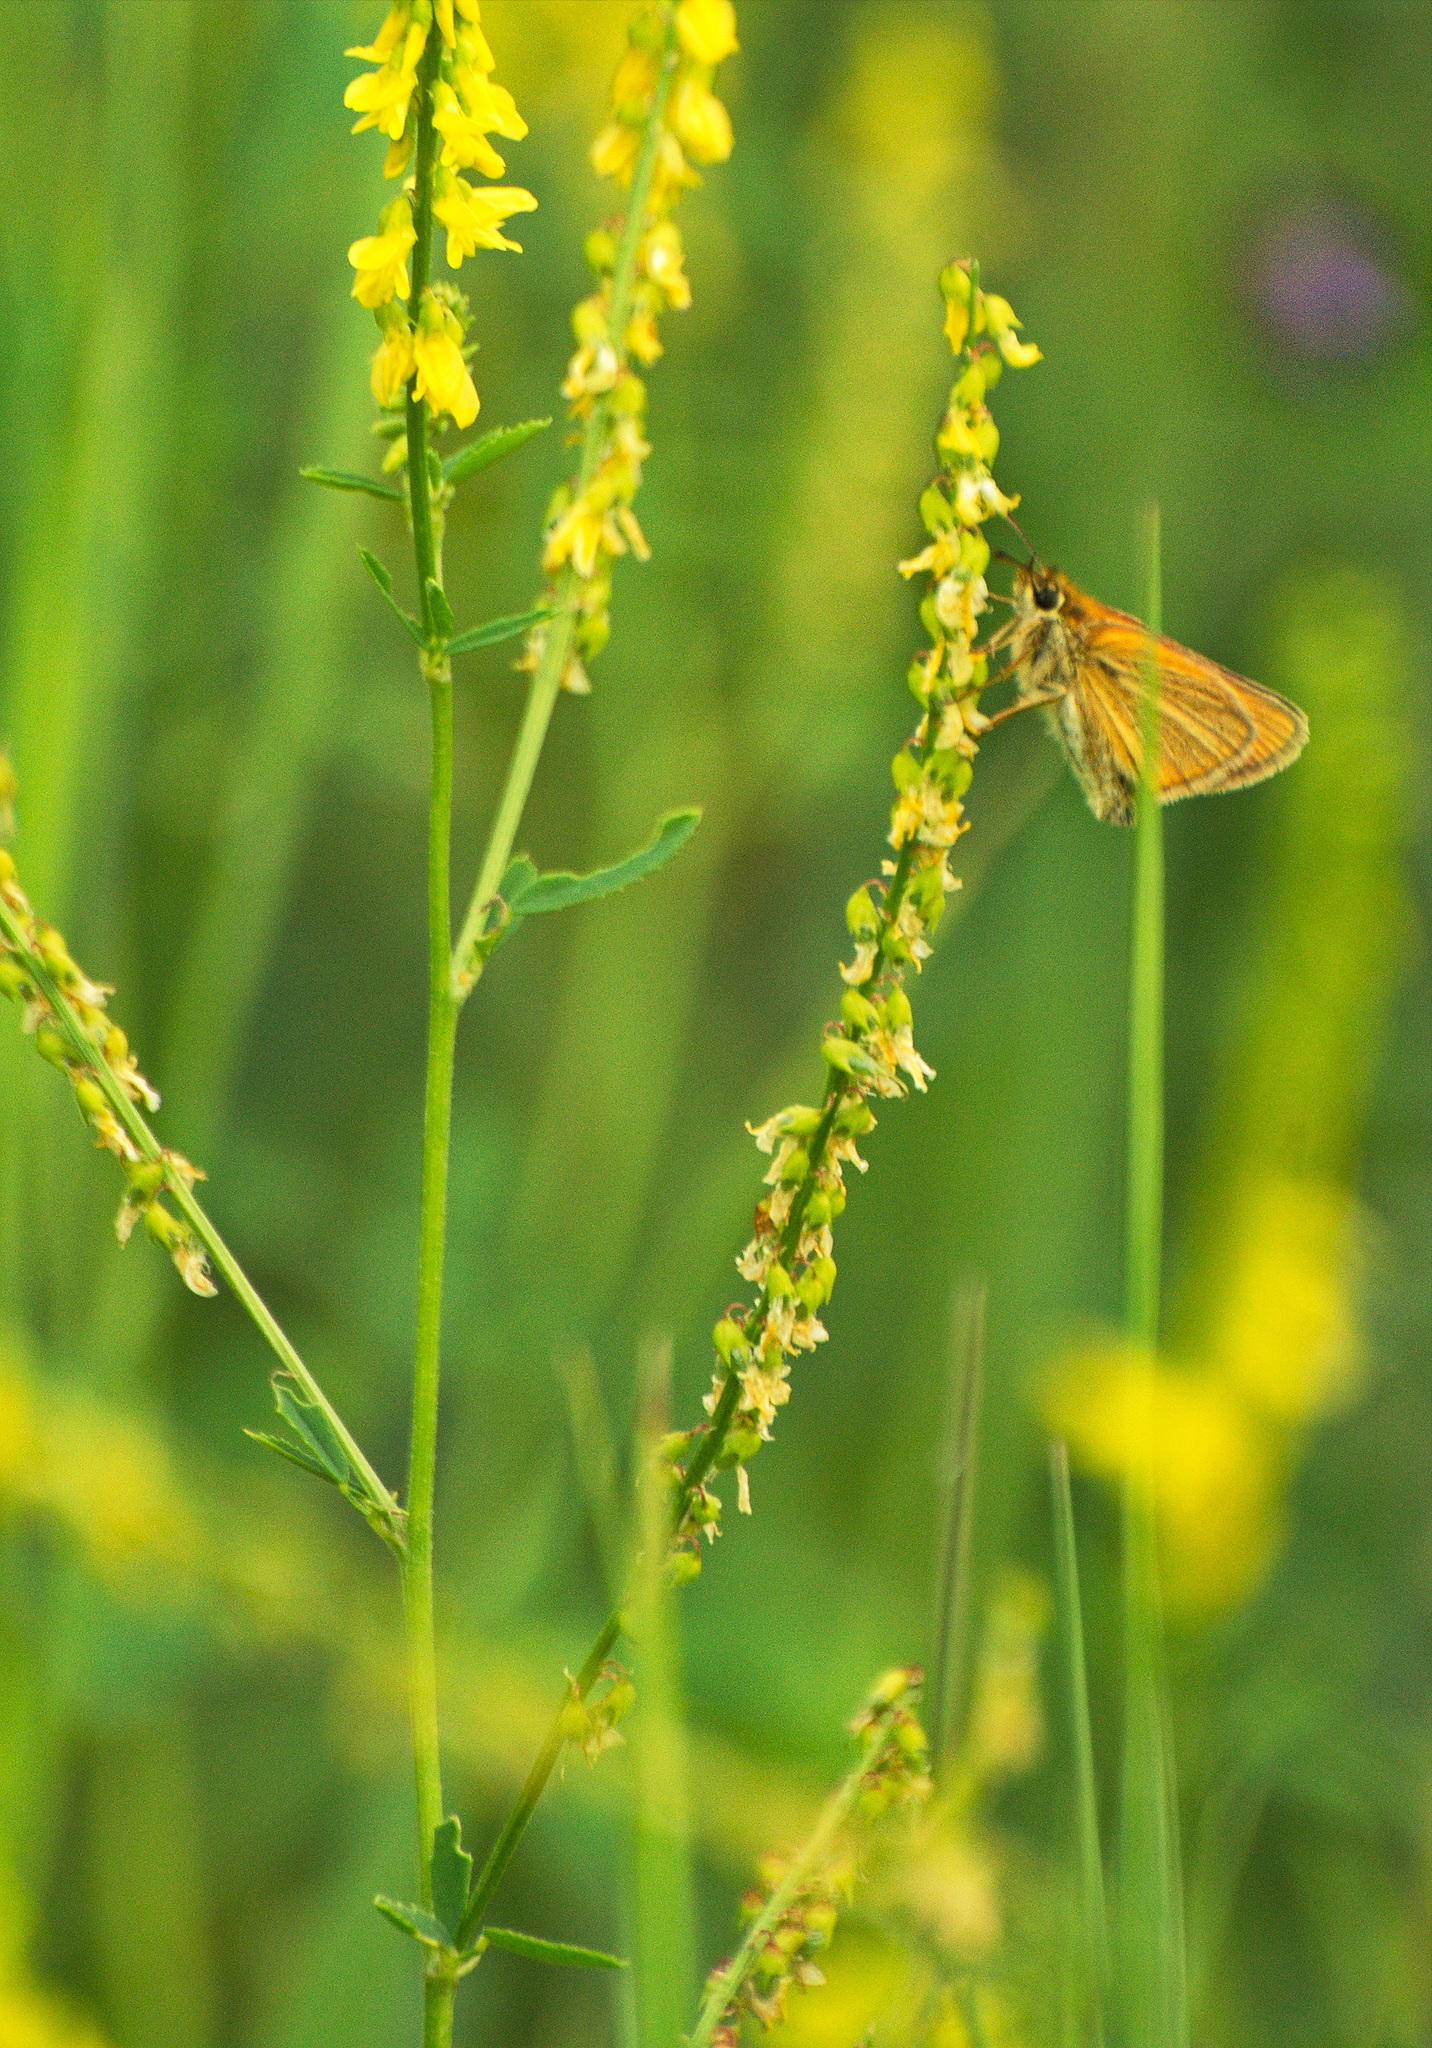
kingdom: Animalia
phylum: Arthropoda
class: Insecta
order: Lepidoptera
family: Hesperiidae
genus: Thymelicus
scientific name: Thymelicus lineola
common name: Essex skipper
